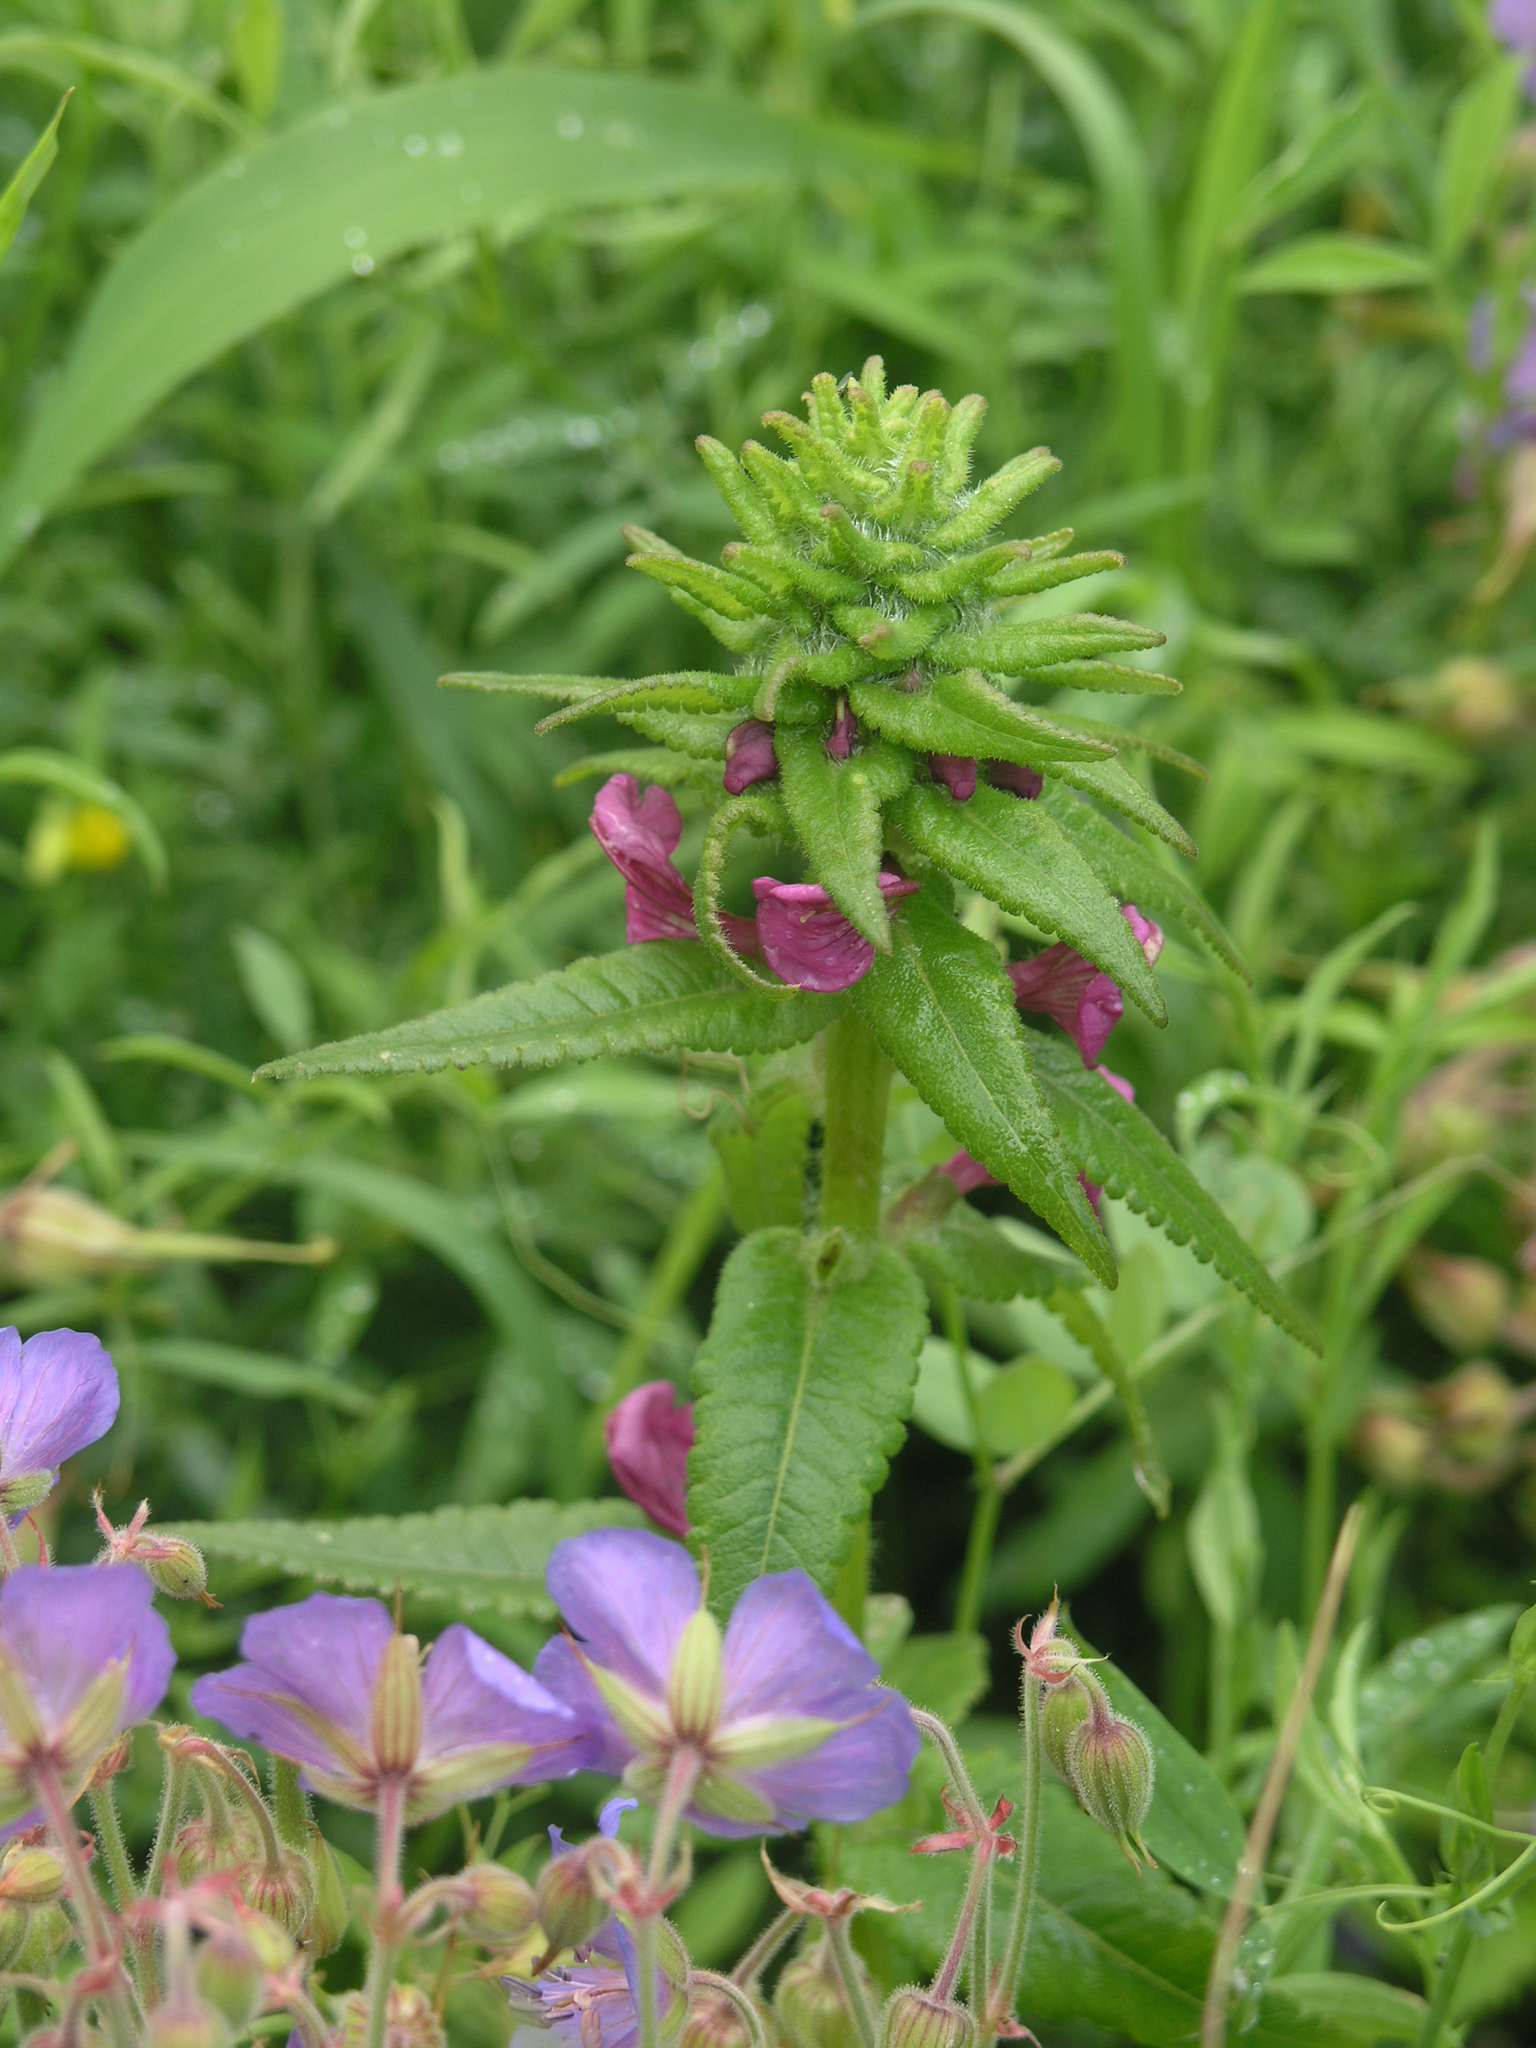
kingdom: Plantae
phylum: Tracheophyta
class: Magnoliopsida
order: Geraniales
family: Geraniaceae
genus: Geranium
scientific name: Geranium pratense
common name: Meadow crane's-bill
